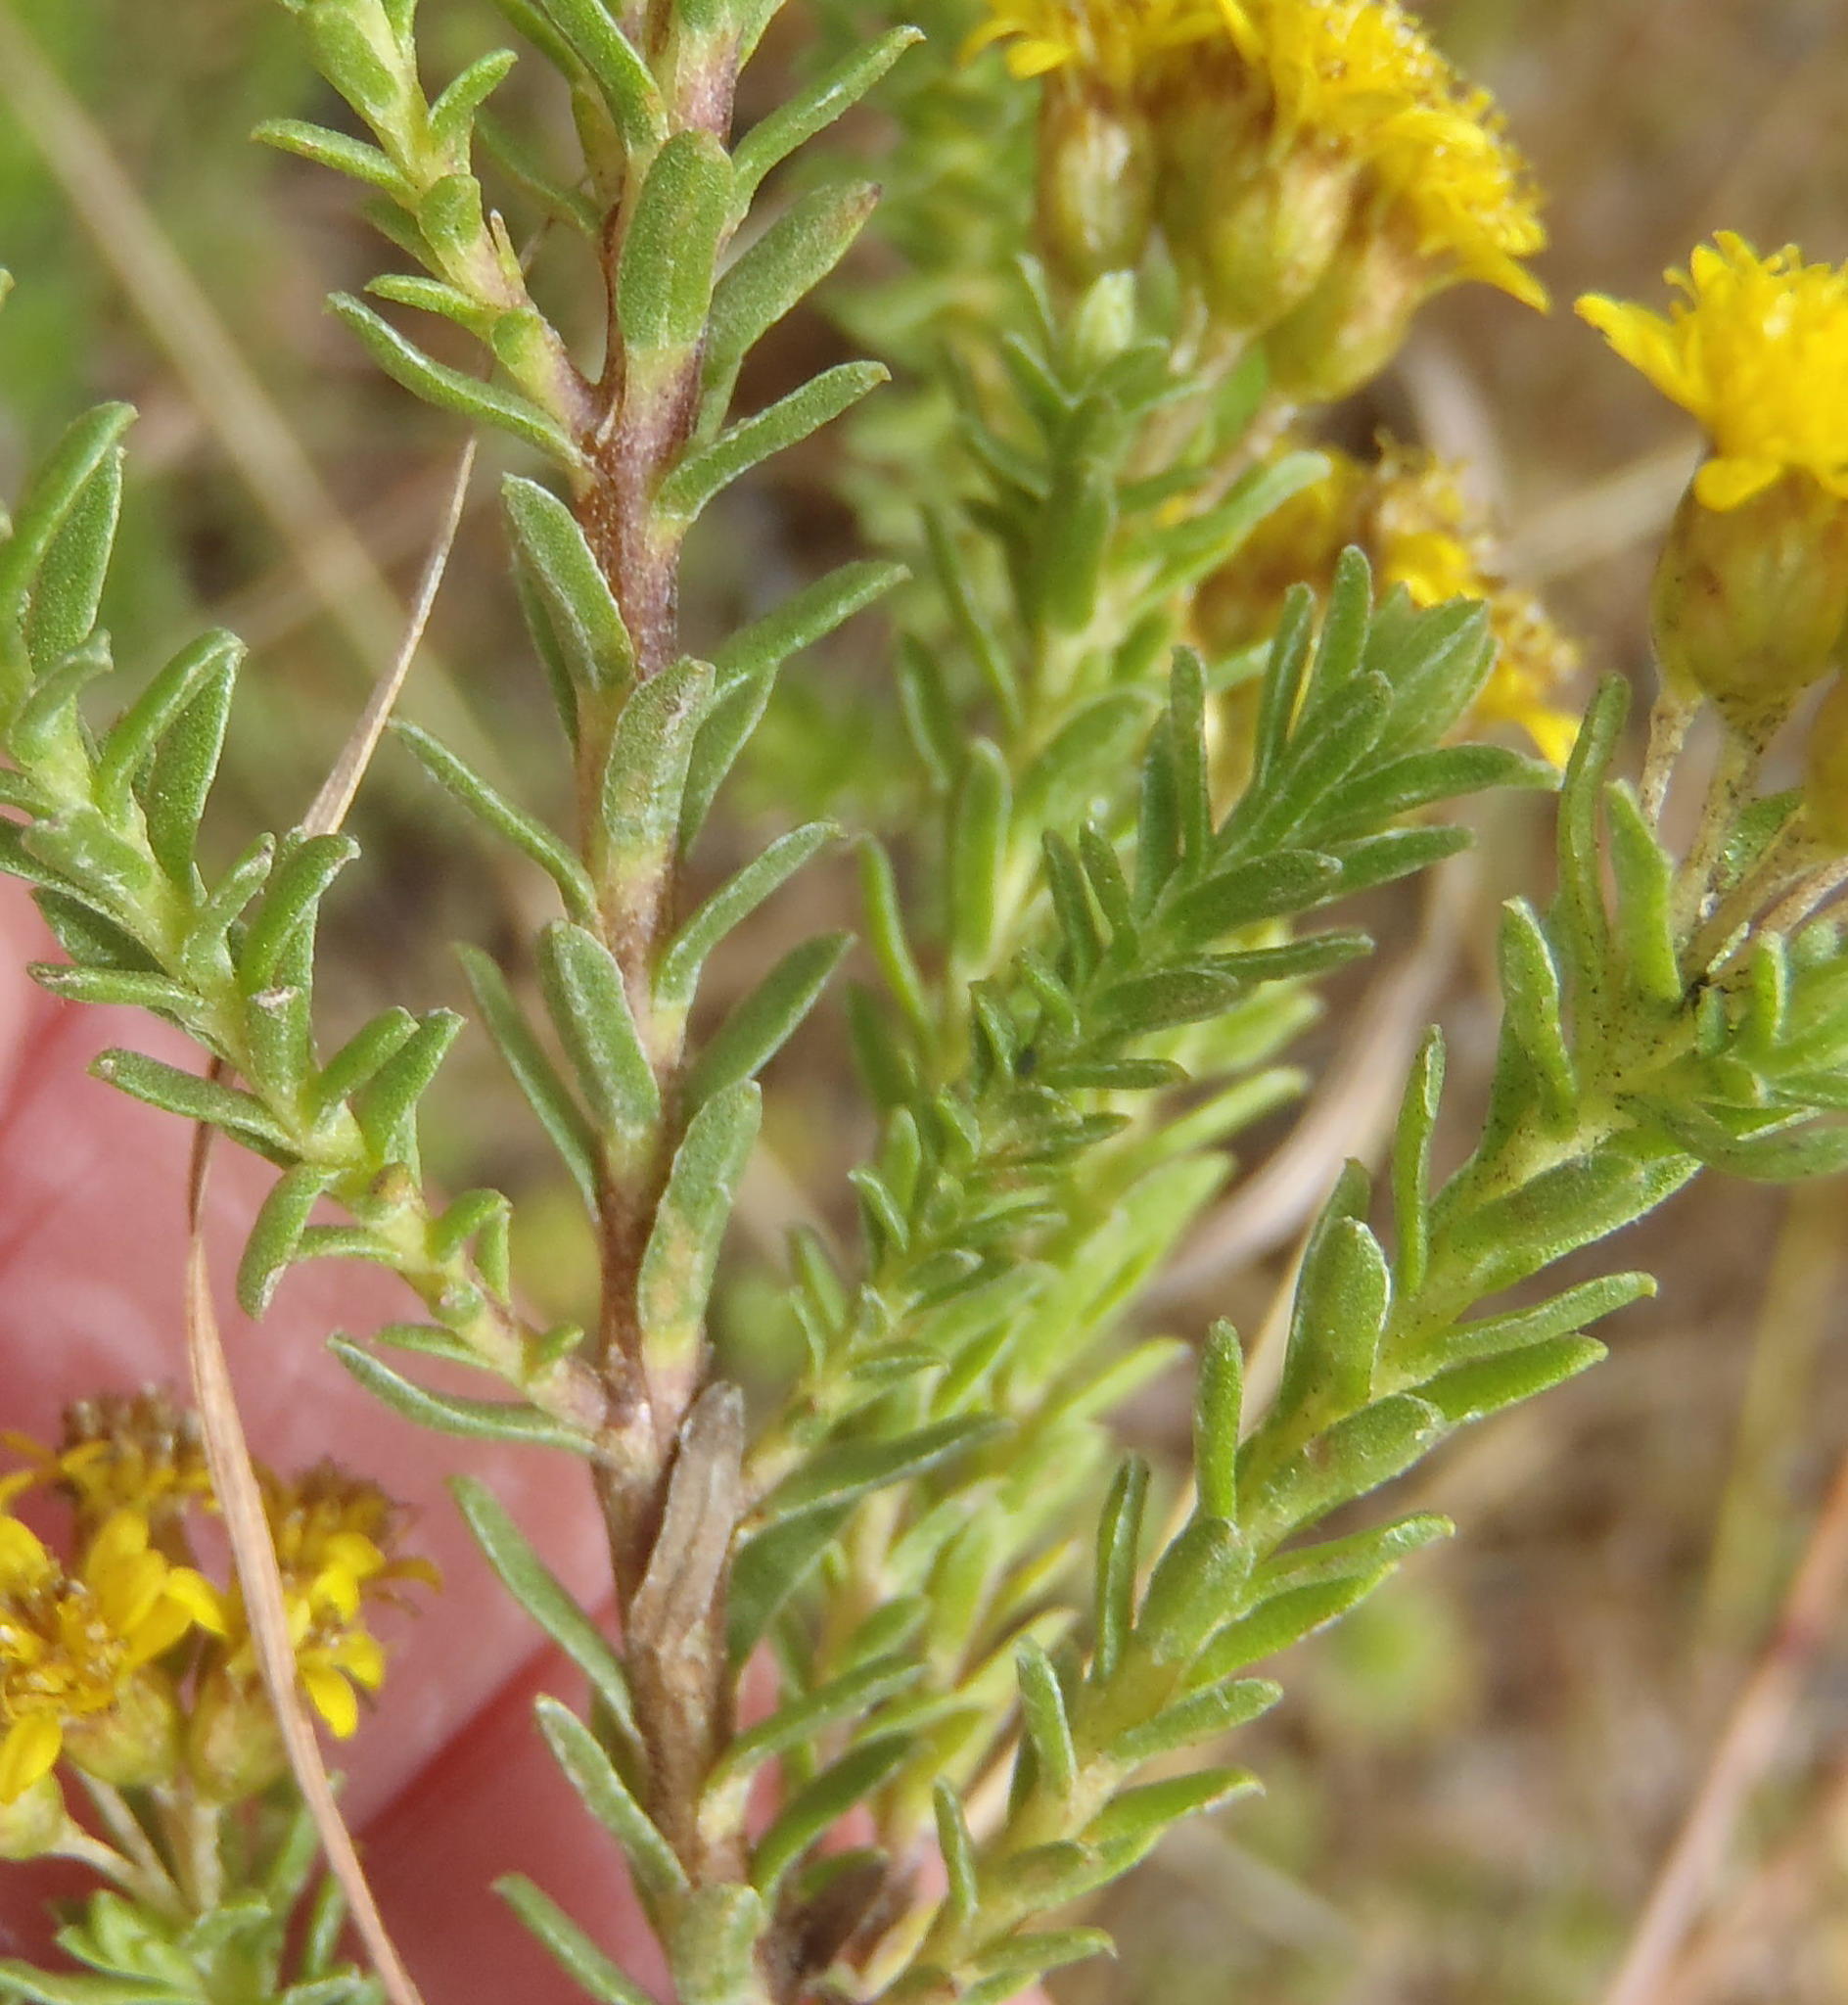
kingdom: Plantae
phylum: Tracheophyta
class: Magnoliopsida
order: Asterales
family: Asteraceae
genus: Oedera
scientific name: Oedera genistifolia
